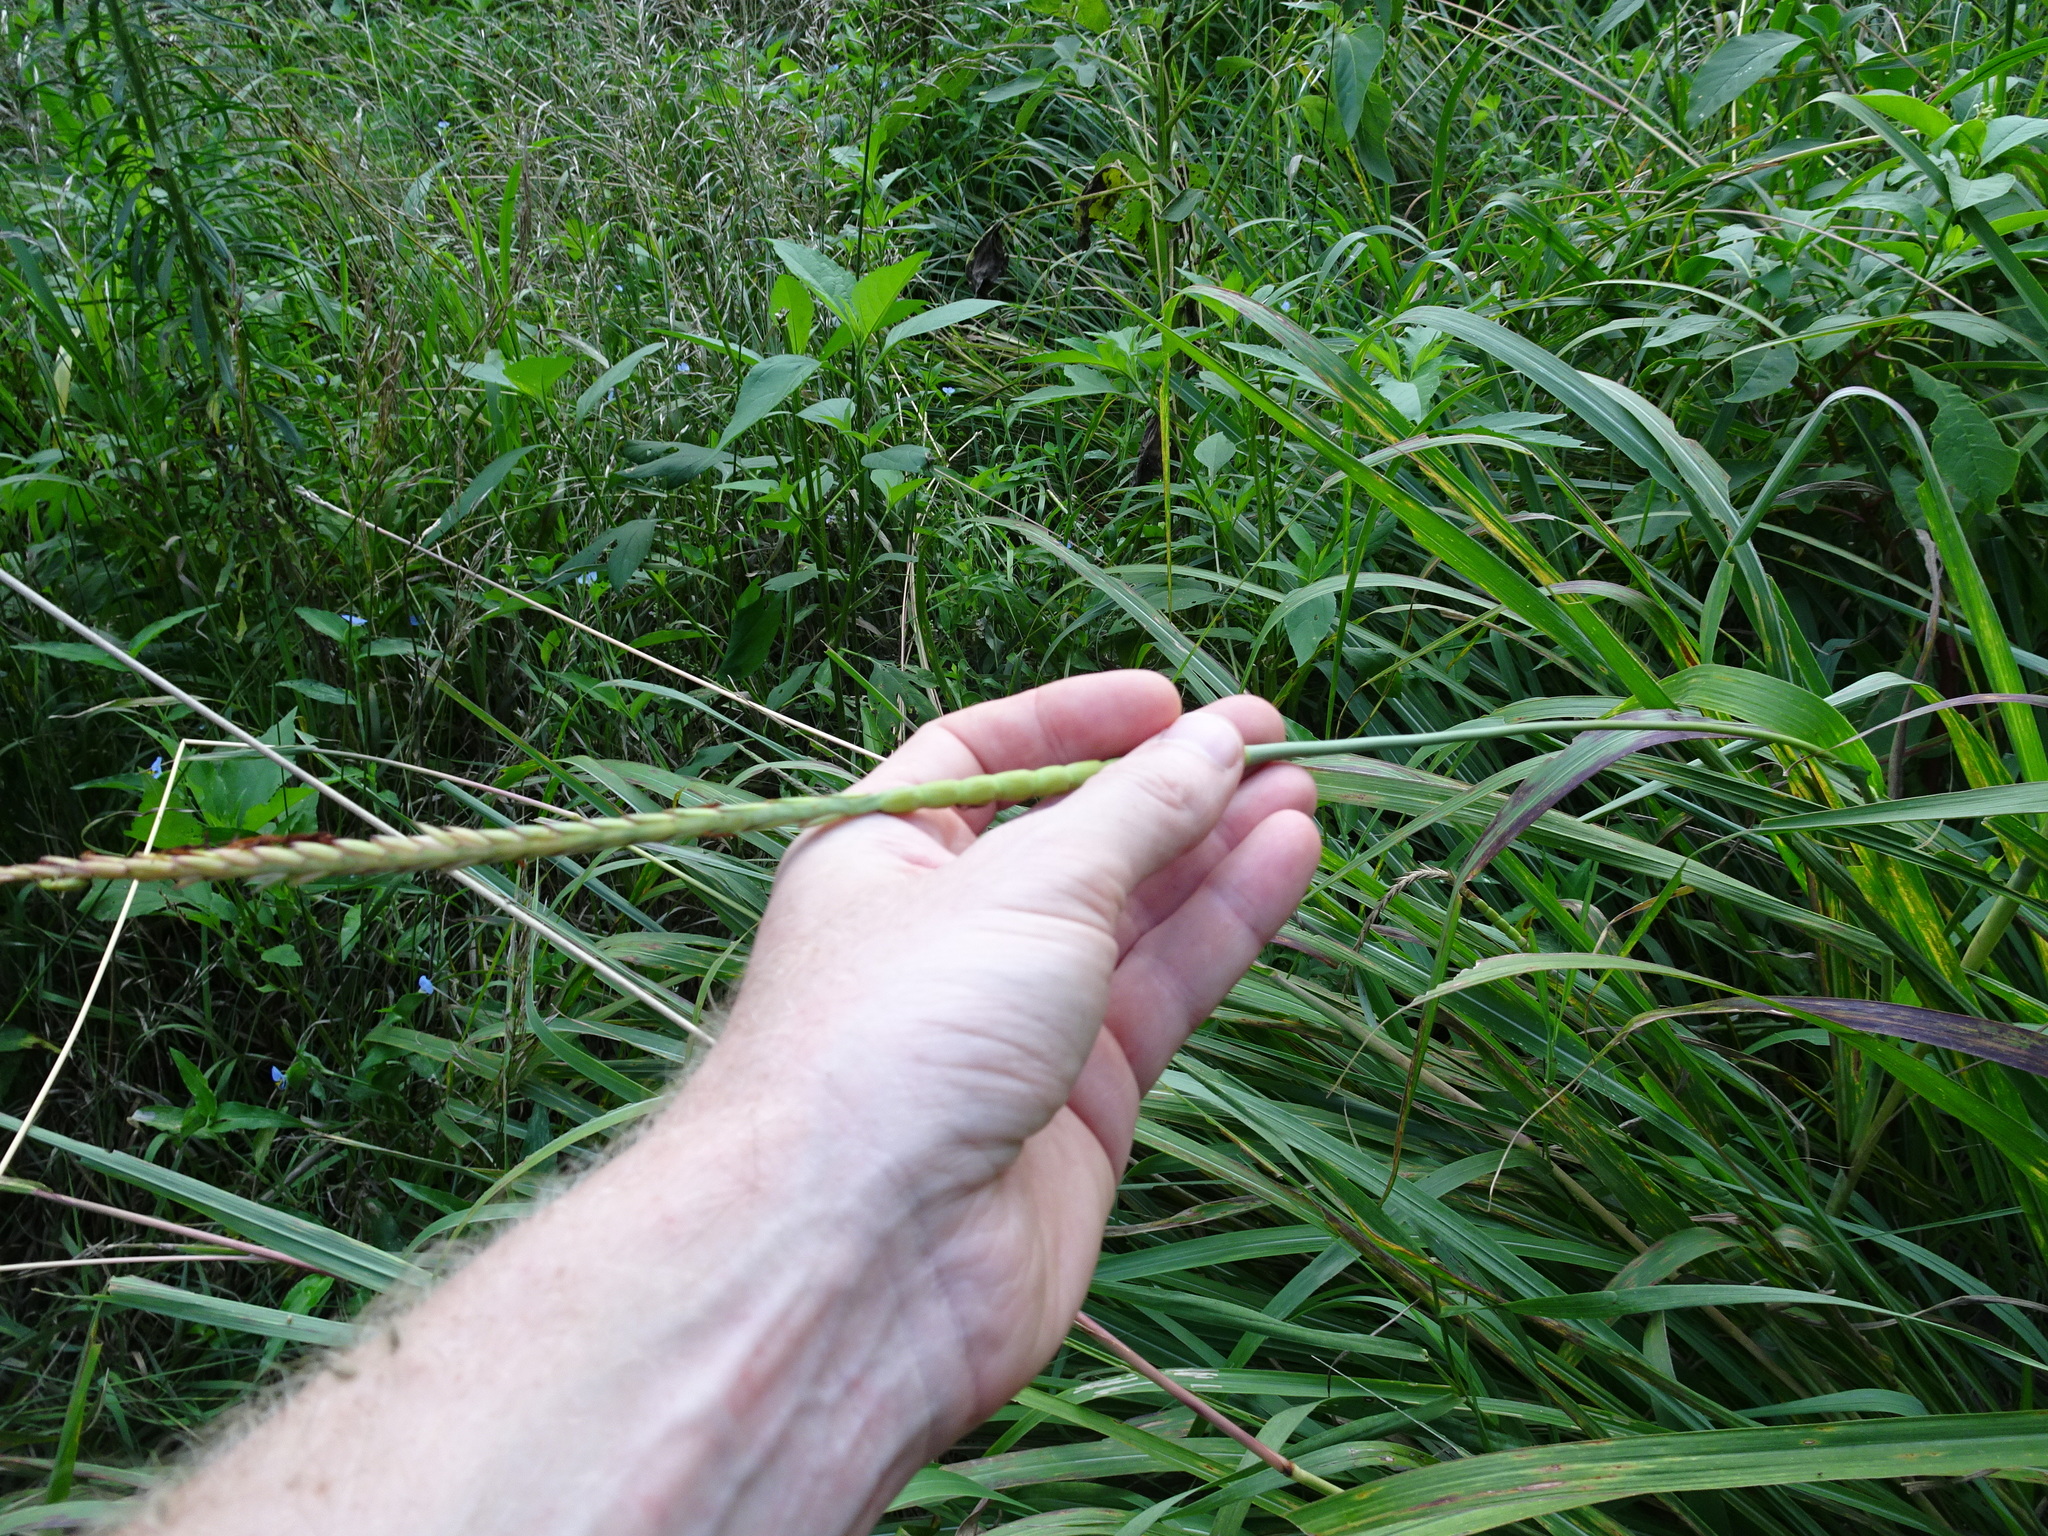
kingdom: Plantae
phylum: Tracheophyta
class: Liliopsida
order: Poales
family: Poaceae
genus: Tripsacum
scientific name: Tripsacum dactyloides
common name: Buffalo-grass
